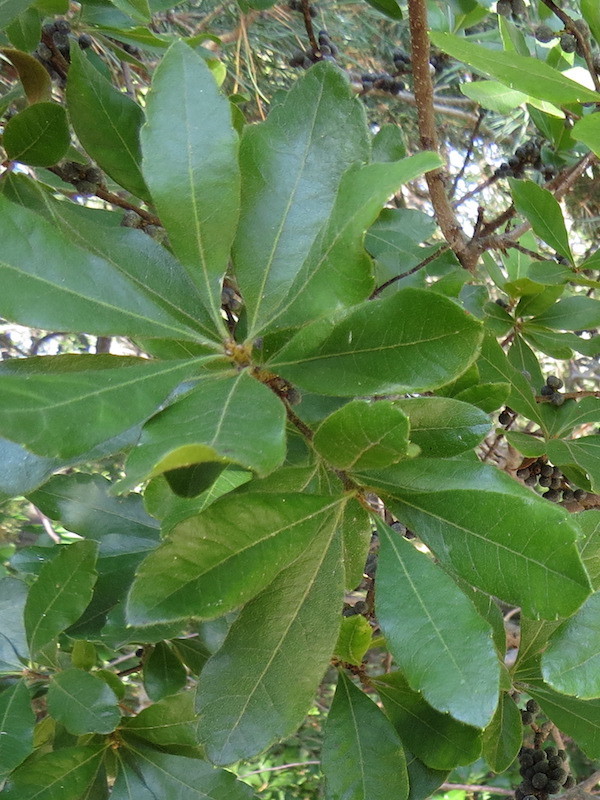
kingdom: Plantae
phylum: Tracheophyta
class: Magnoliopsida
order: Fagales
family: Myricaceae
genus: Morella
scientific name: Morella pensylvanica
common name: Northern bayberry
